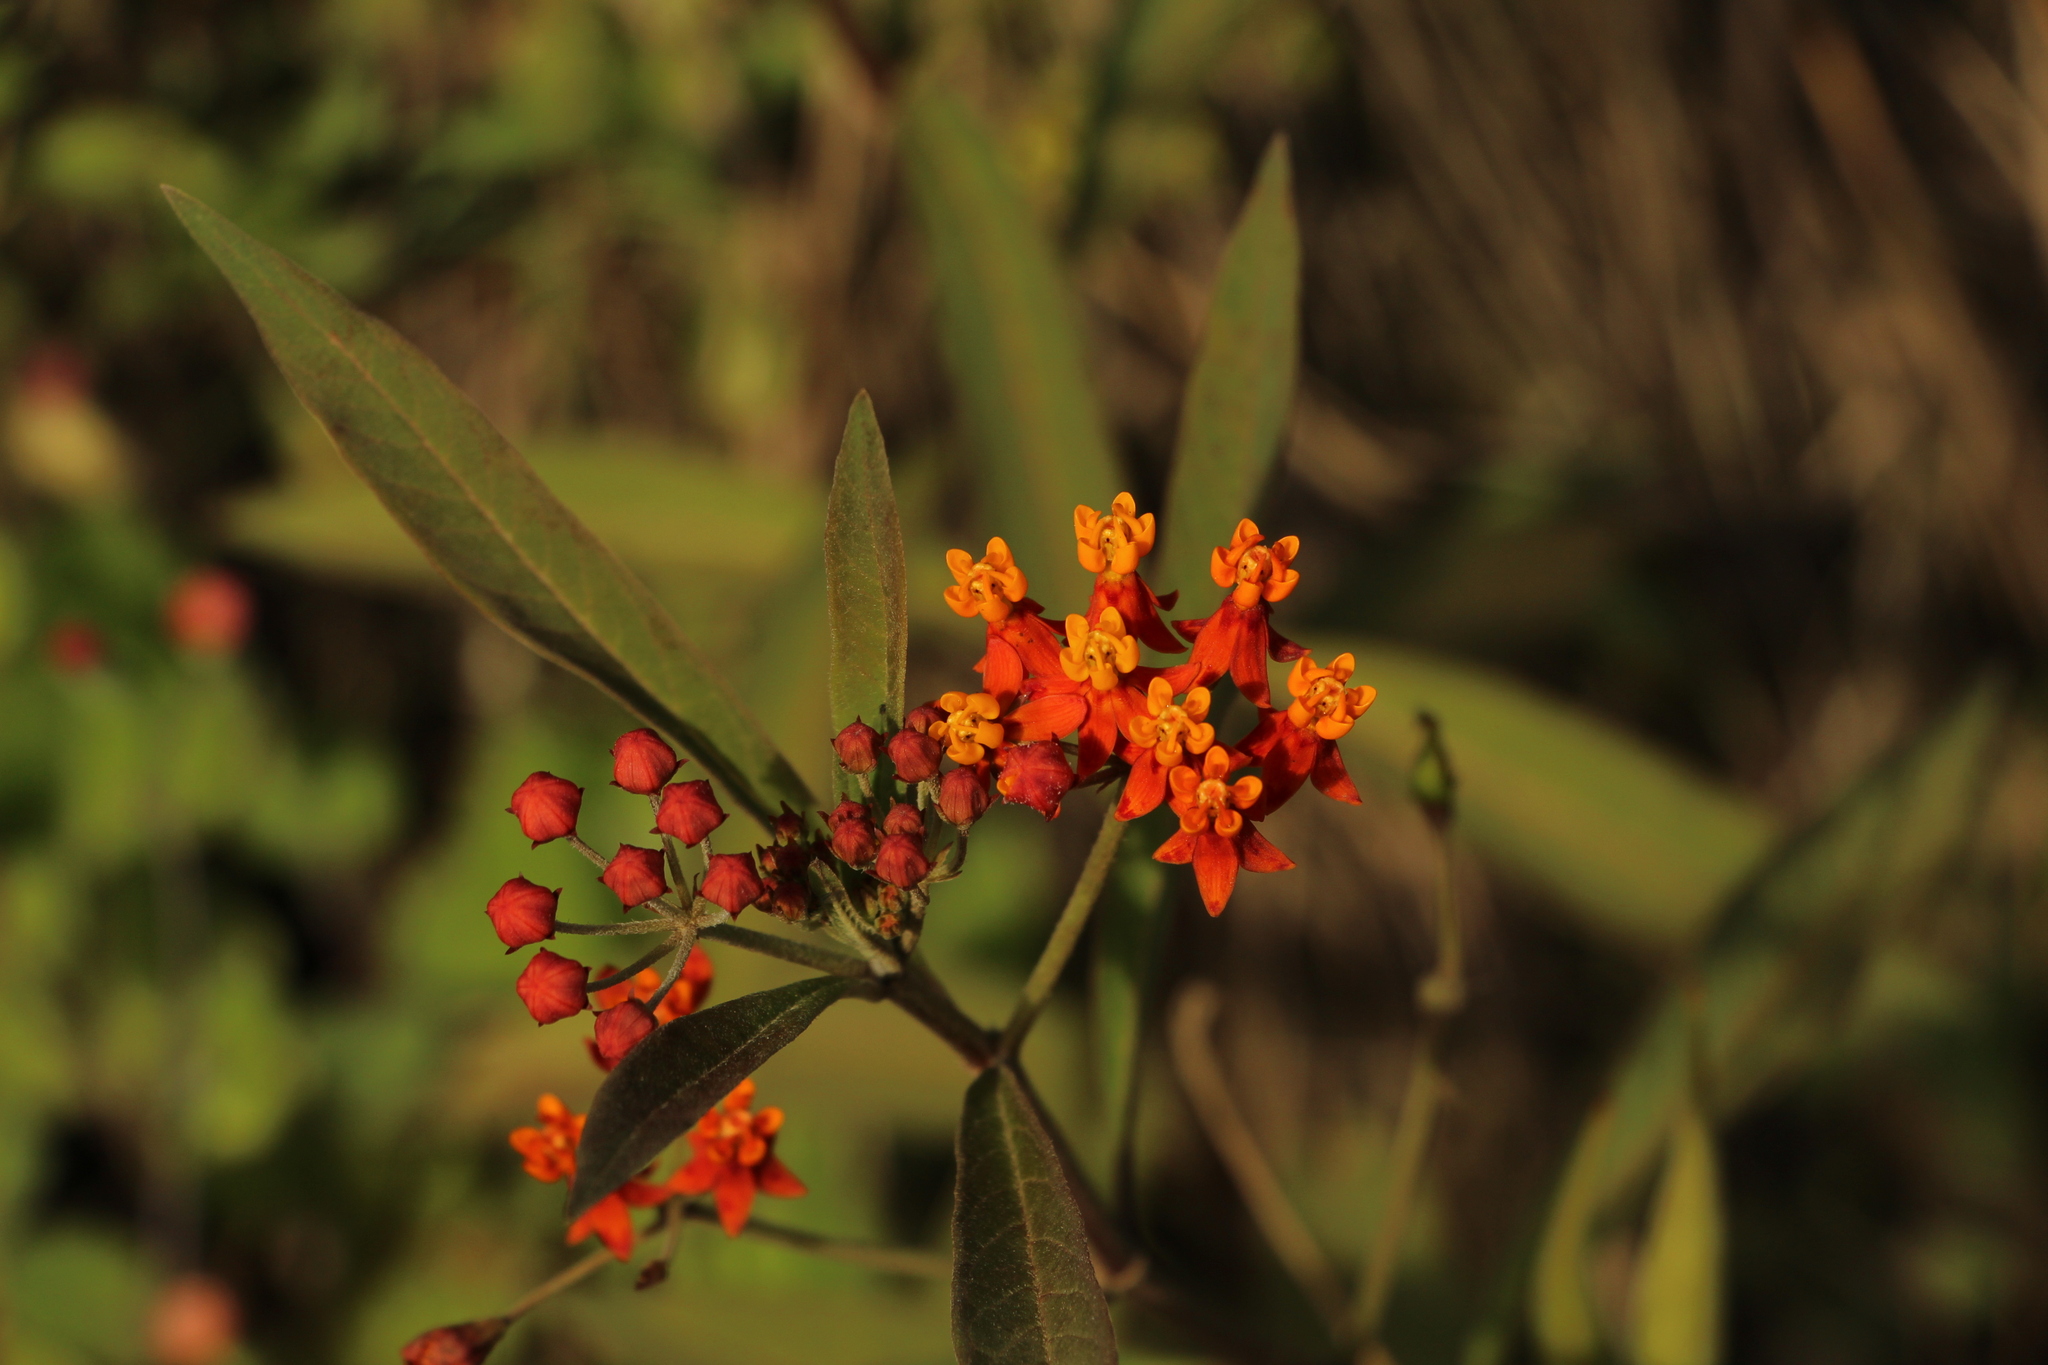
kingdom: Plantae
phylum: Tracheophyta
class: Magnoliopsida
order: Gentianales
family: Apocynaceae
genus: Asclepias
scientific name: Asclepias curassavica
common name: Bloodflower
